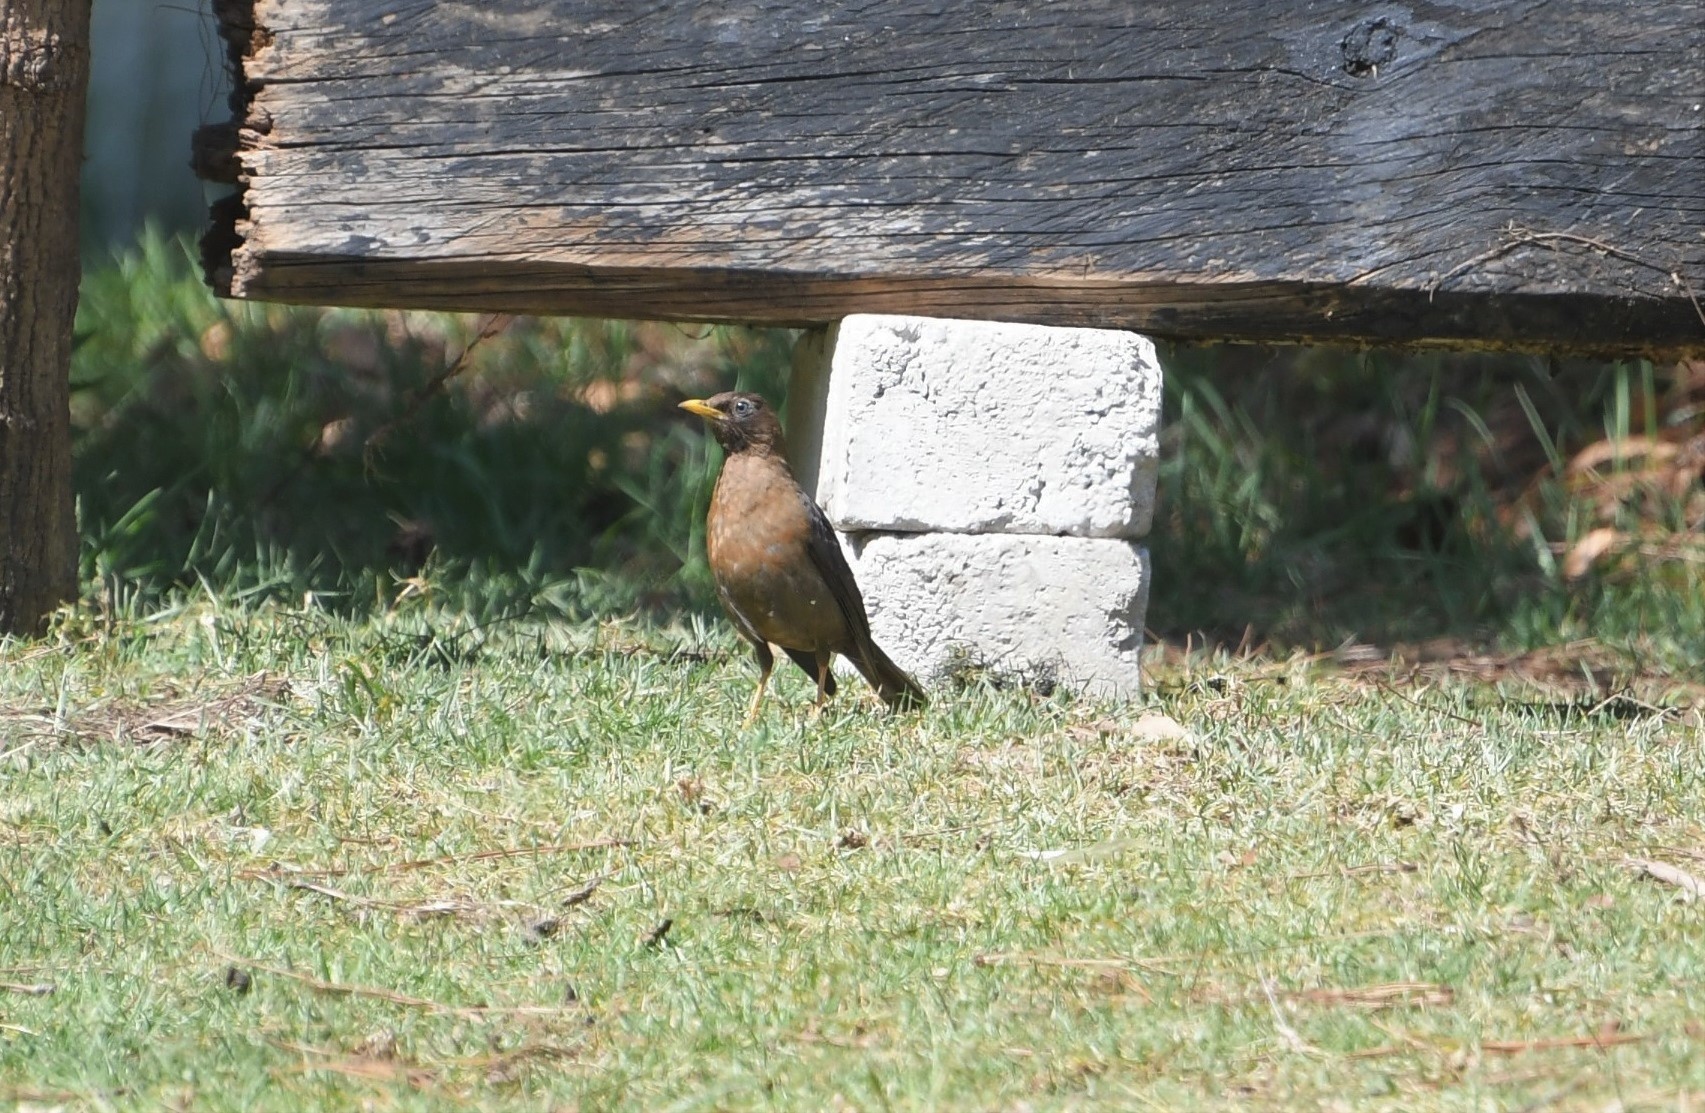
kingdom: Animalia
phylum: Chordata
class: Aves
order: Passeriformes
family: Turdidae
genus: Turdus
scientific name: Turdus rufitorques
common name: Rufous-collared thrush
